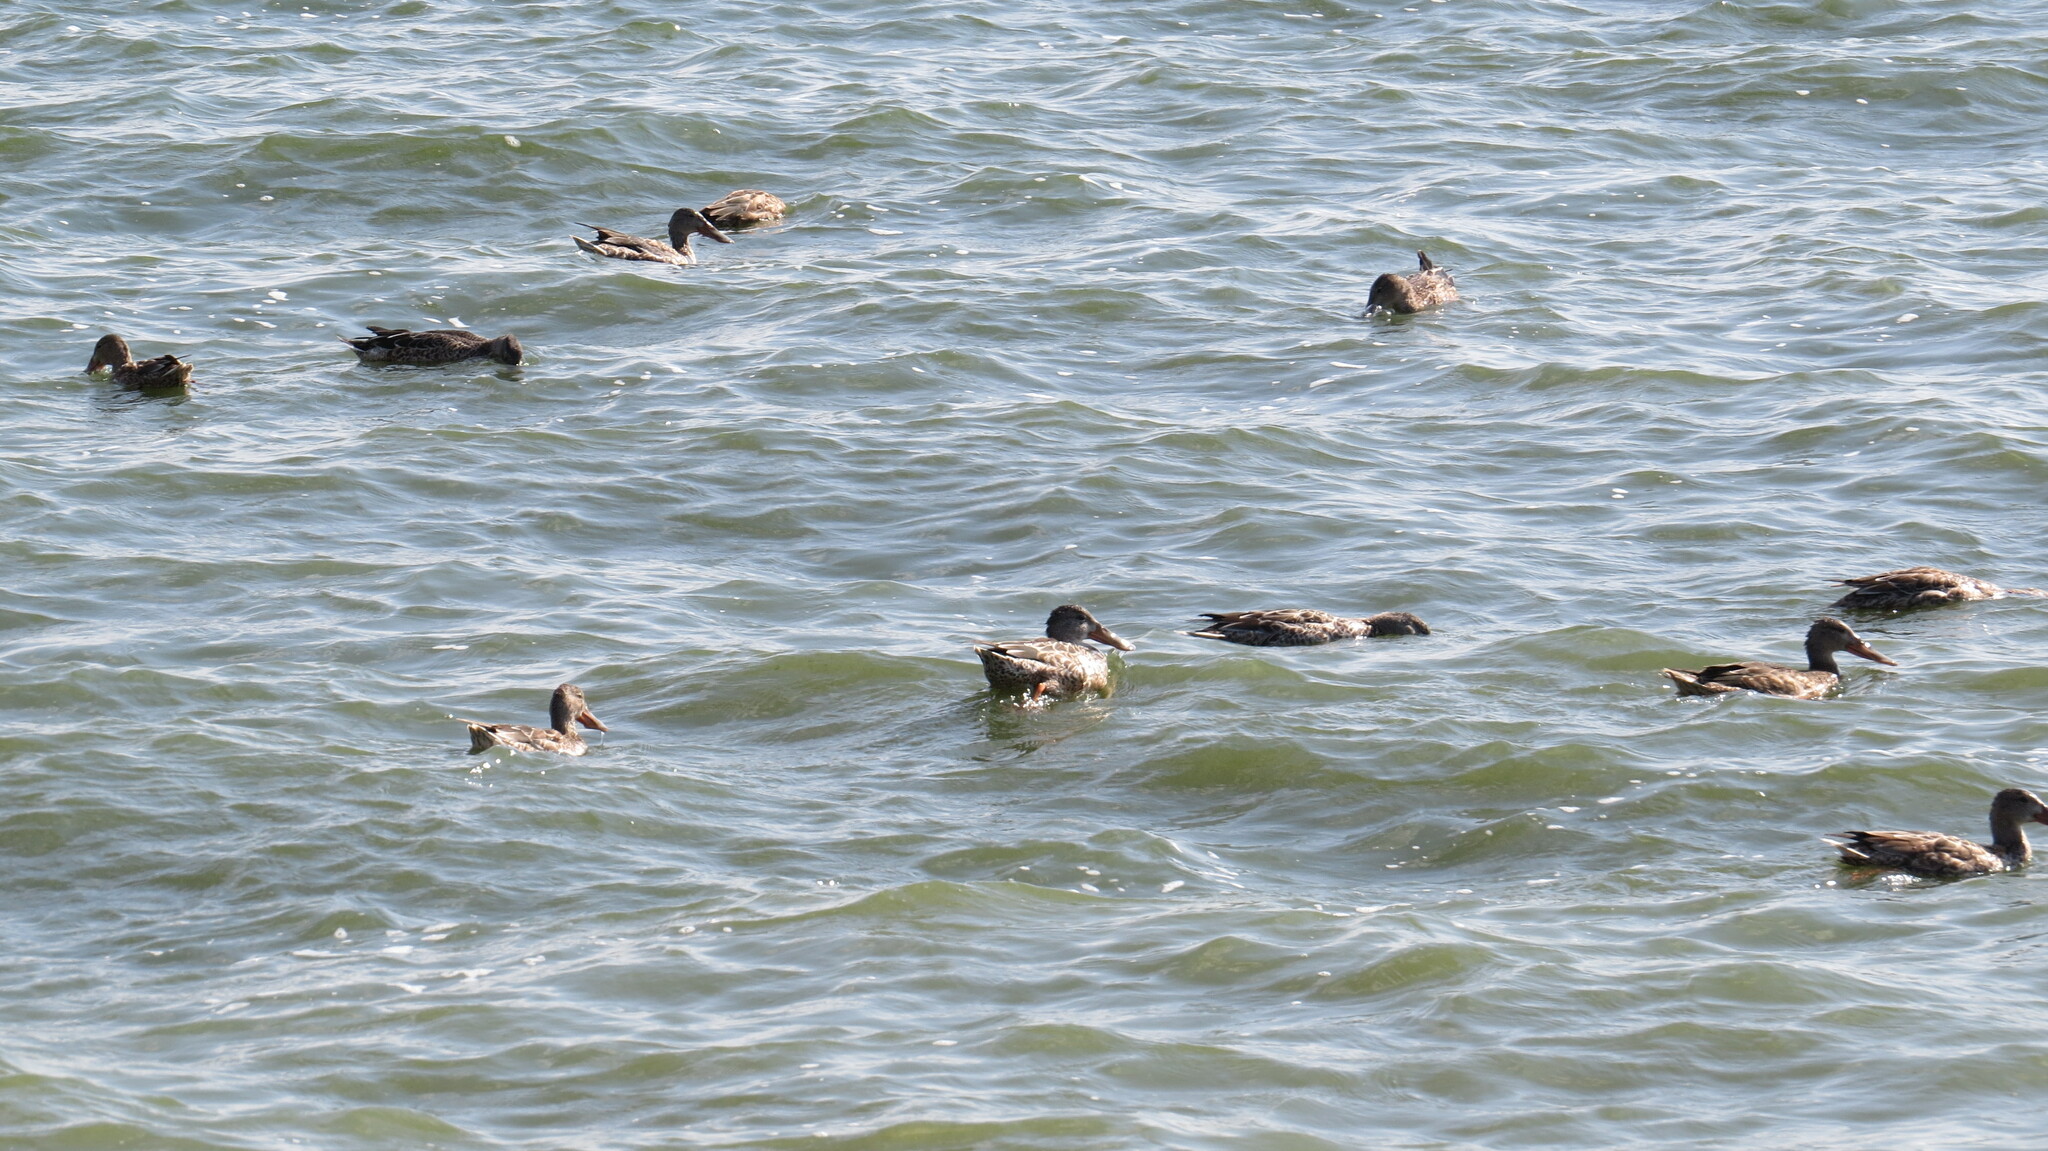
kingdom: Animalia
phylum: Chordata
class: Aves
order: Anseriformes
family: Anatidae
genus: Spatula
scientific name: Spatula clypeata
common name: Northern shoveler
